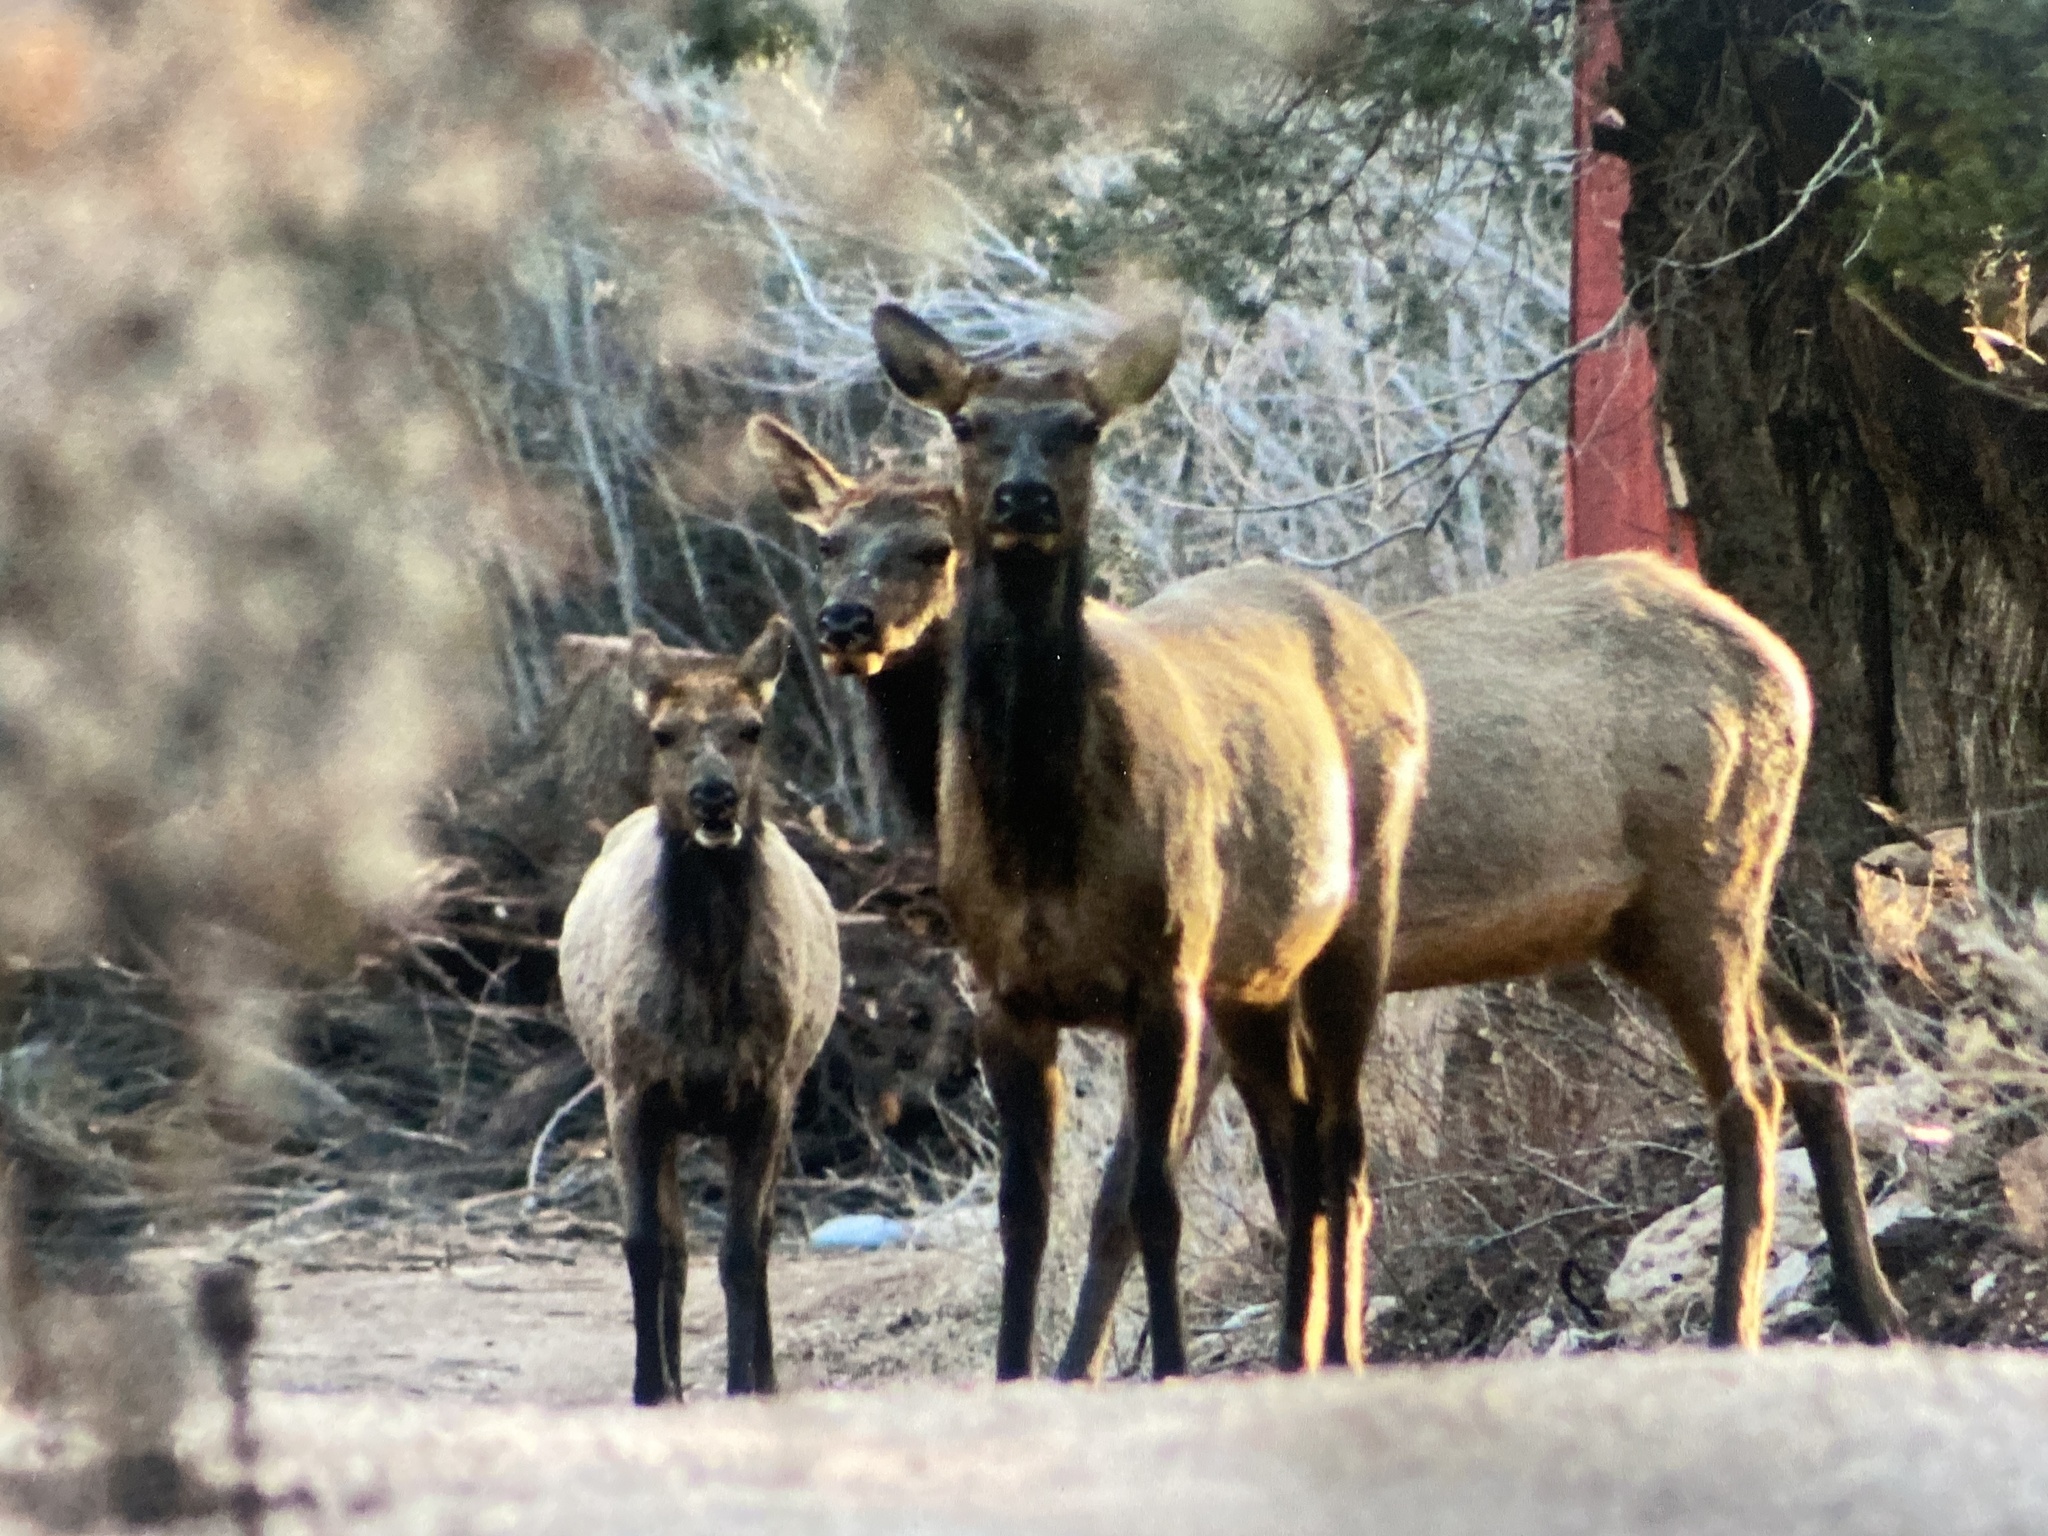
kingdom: Animalia
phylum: Chordata
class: Mammalia
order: Artiodactyla
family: Cervidae
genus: Cervus
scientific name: Cervus elaphus
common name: Red deer
